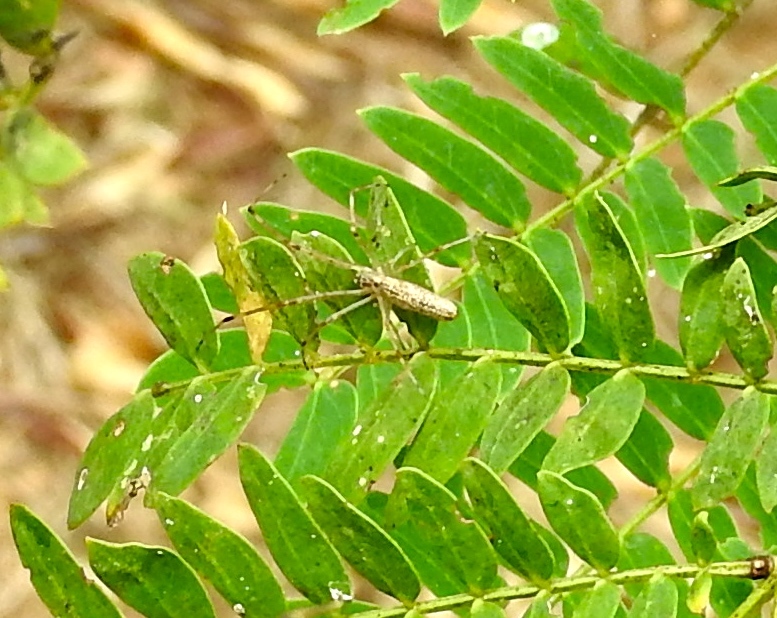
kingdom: Animalia
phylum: Arthropoda
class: Arachnida
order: Araneae
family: Tetragnathidae
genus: Tetragnatha
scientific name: Tetragnatha
